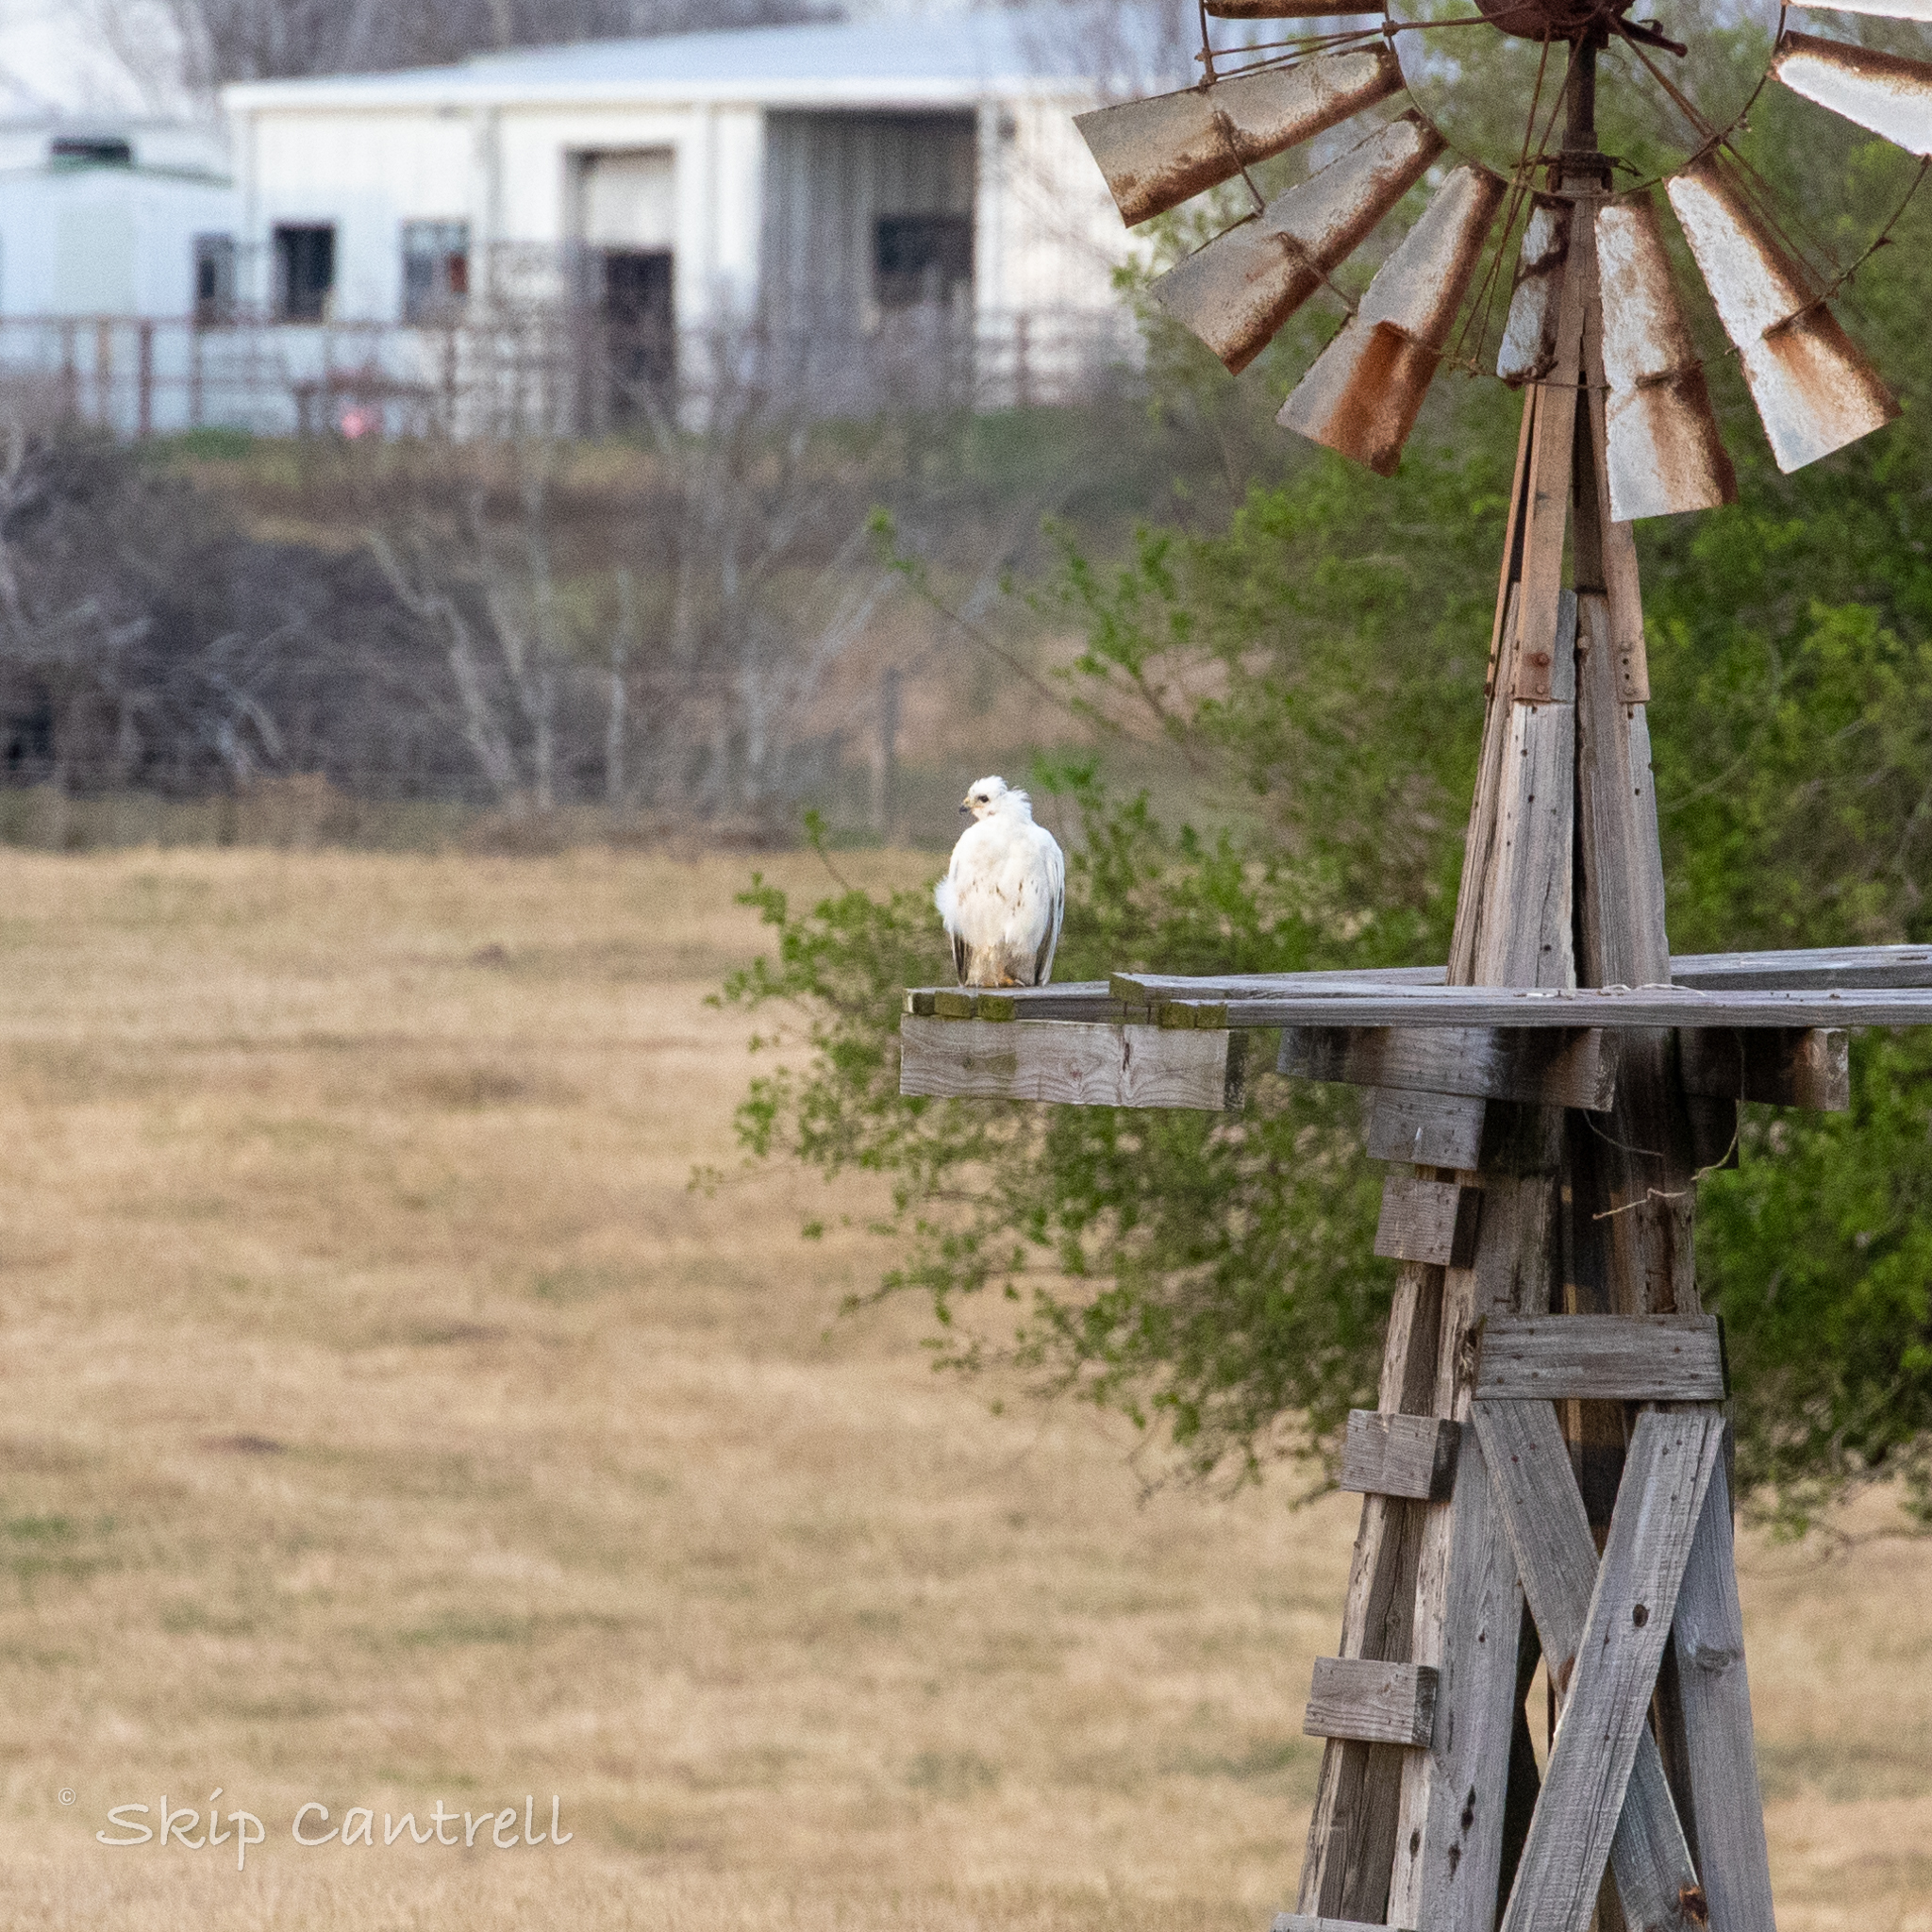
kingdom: Animalia
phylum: Chordata
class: Aves
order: Accipitriformes
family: Accipitridae
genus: Buteo
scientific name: Buteo jamaicensis
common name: Red-tailed hawk
